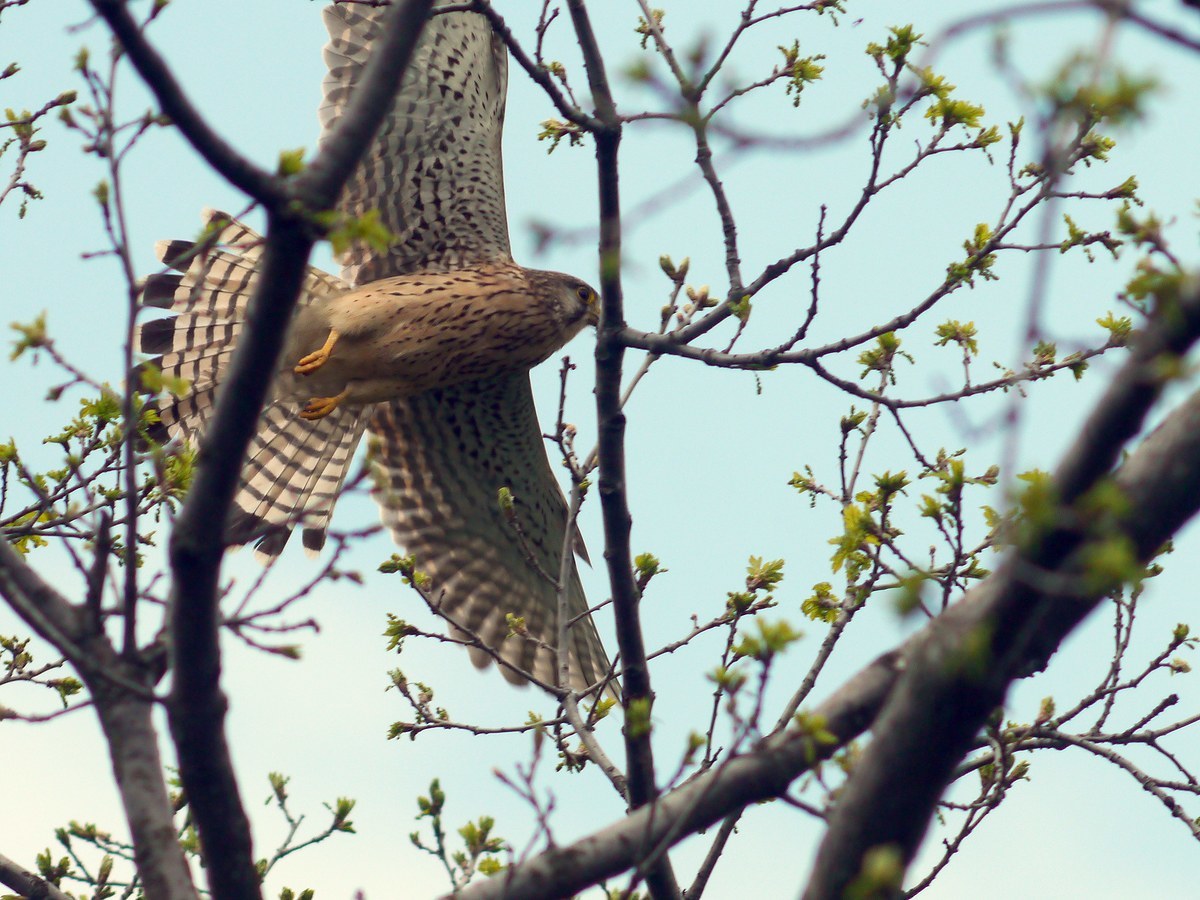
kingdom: Animalia
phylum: Chordata
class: Aves
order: Falconiformes
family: Falconidae
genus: Falco
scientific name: Falco tinnunculus
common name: Common kestrel
